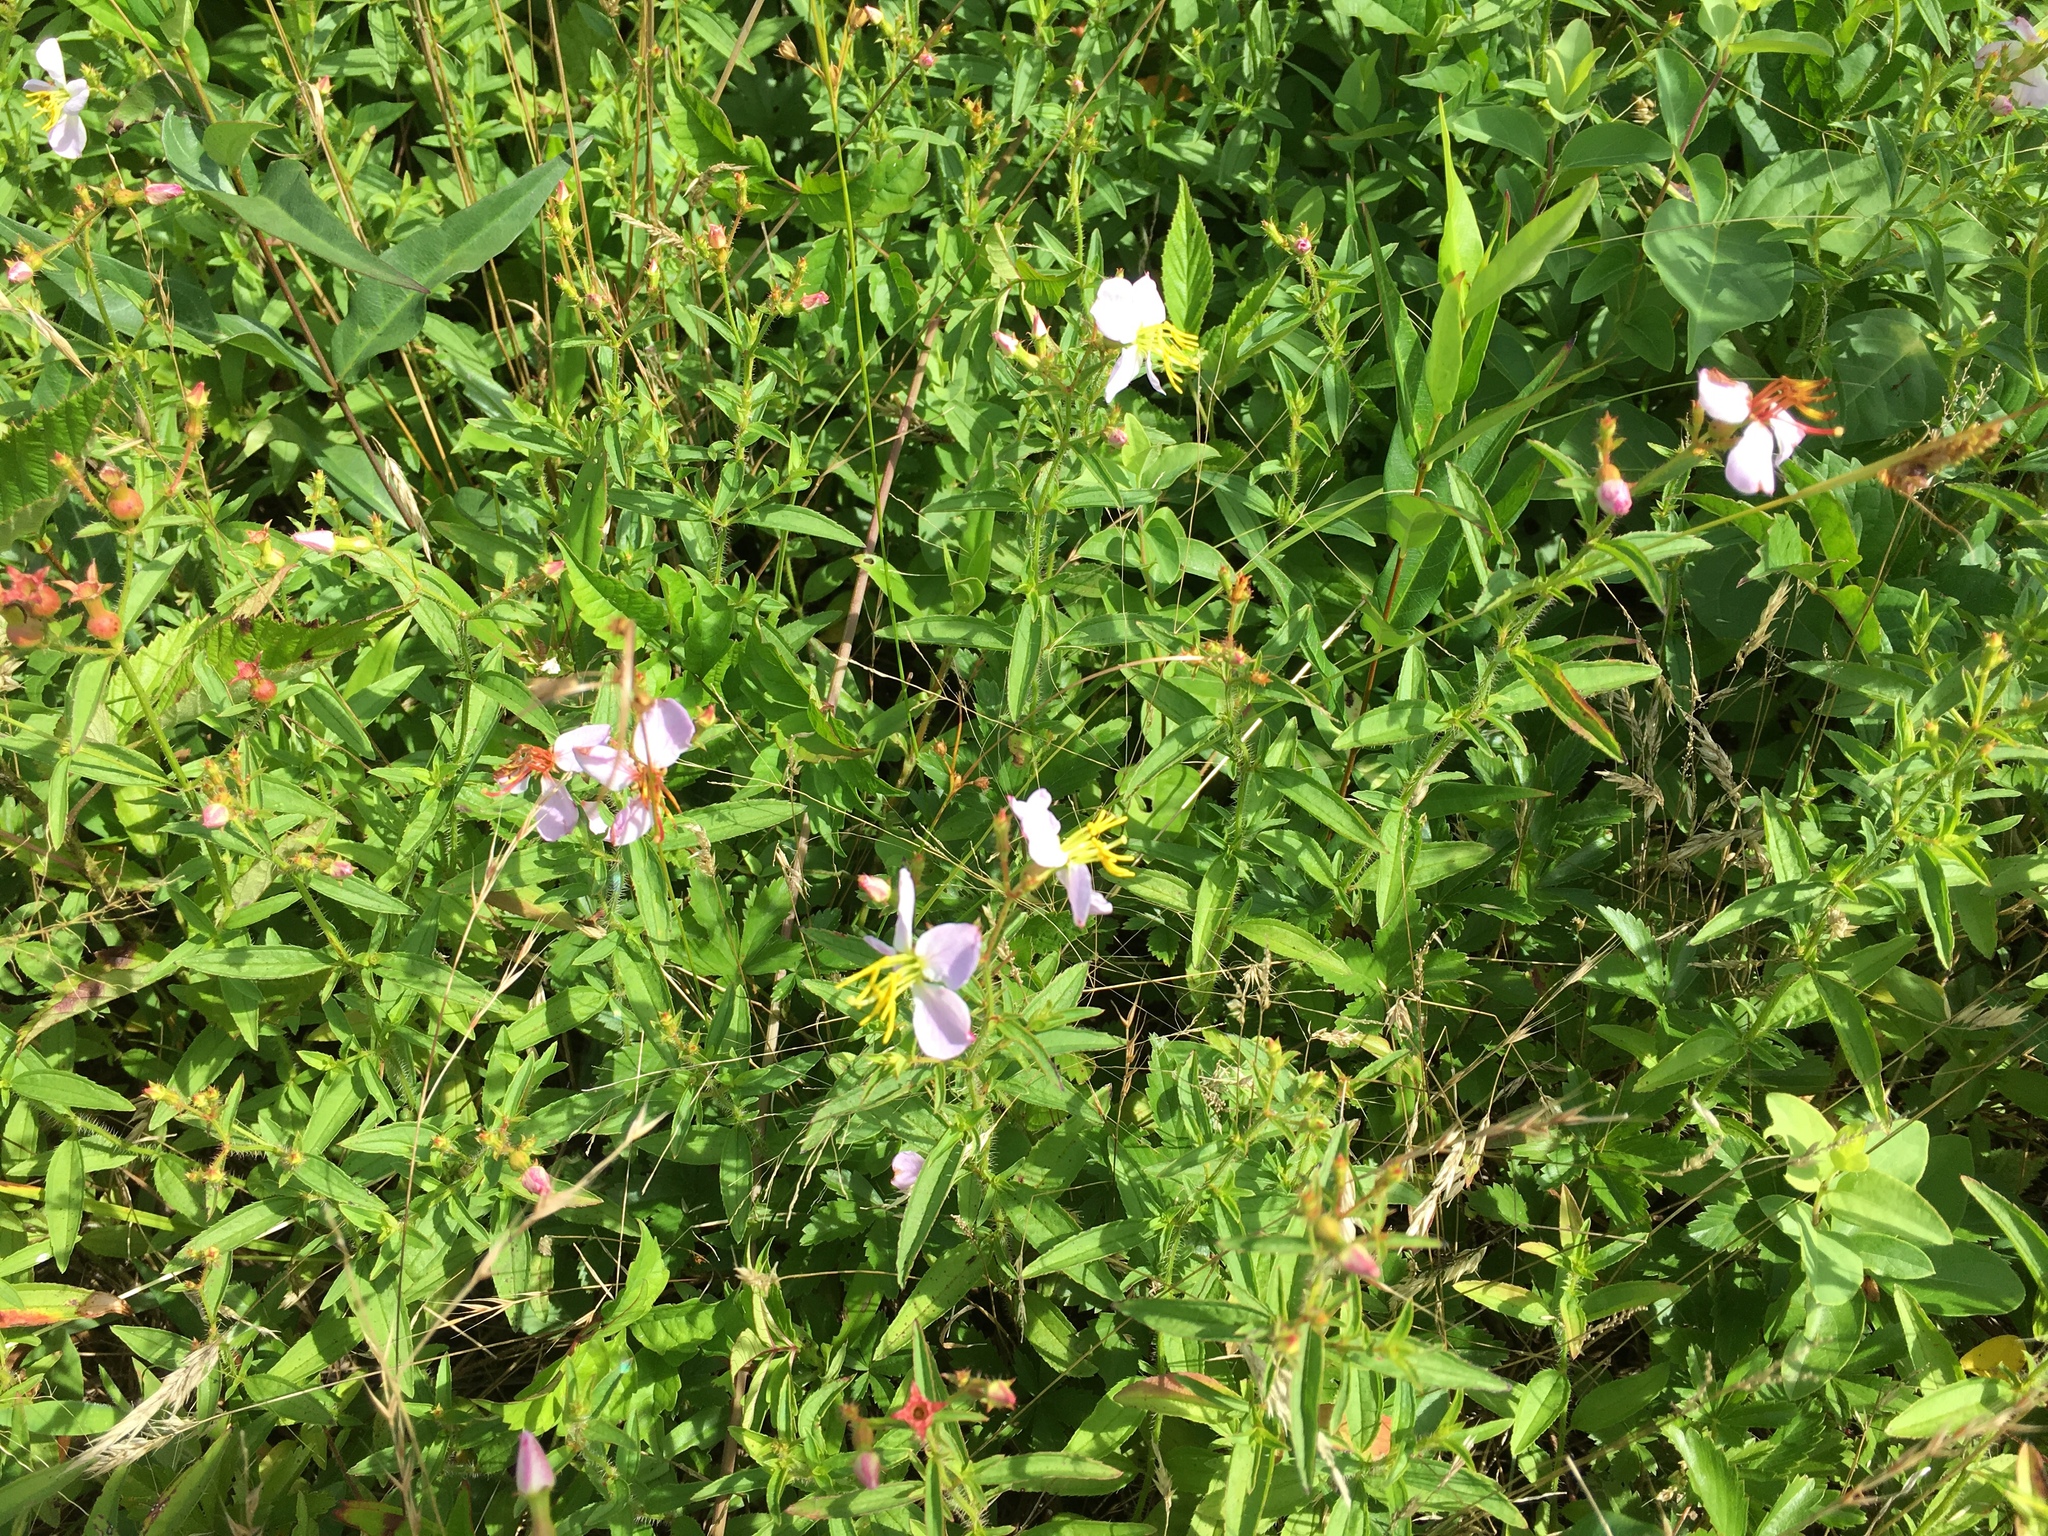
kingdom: Plantae
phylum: Tracheophyta
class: Magnoliopsida
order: Myrtales
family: Melastomataceae
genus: Rhexia
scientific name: Rhexia mariana
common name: Dull meadow-pitcher
